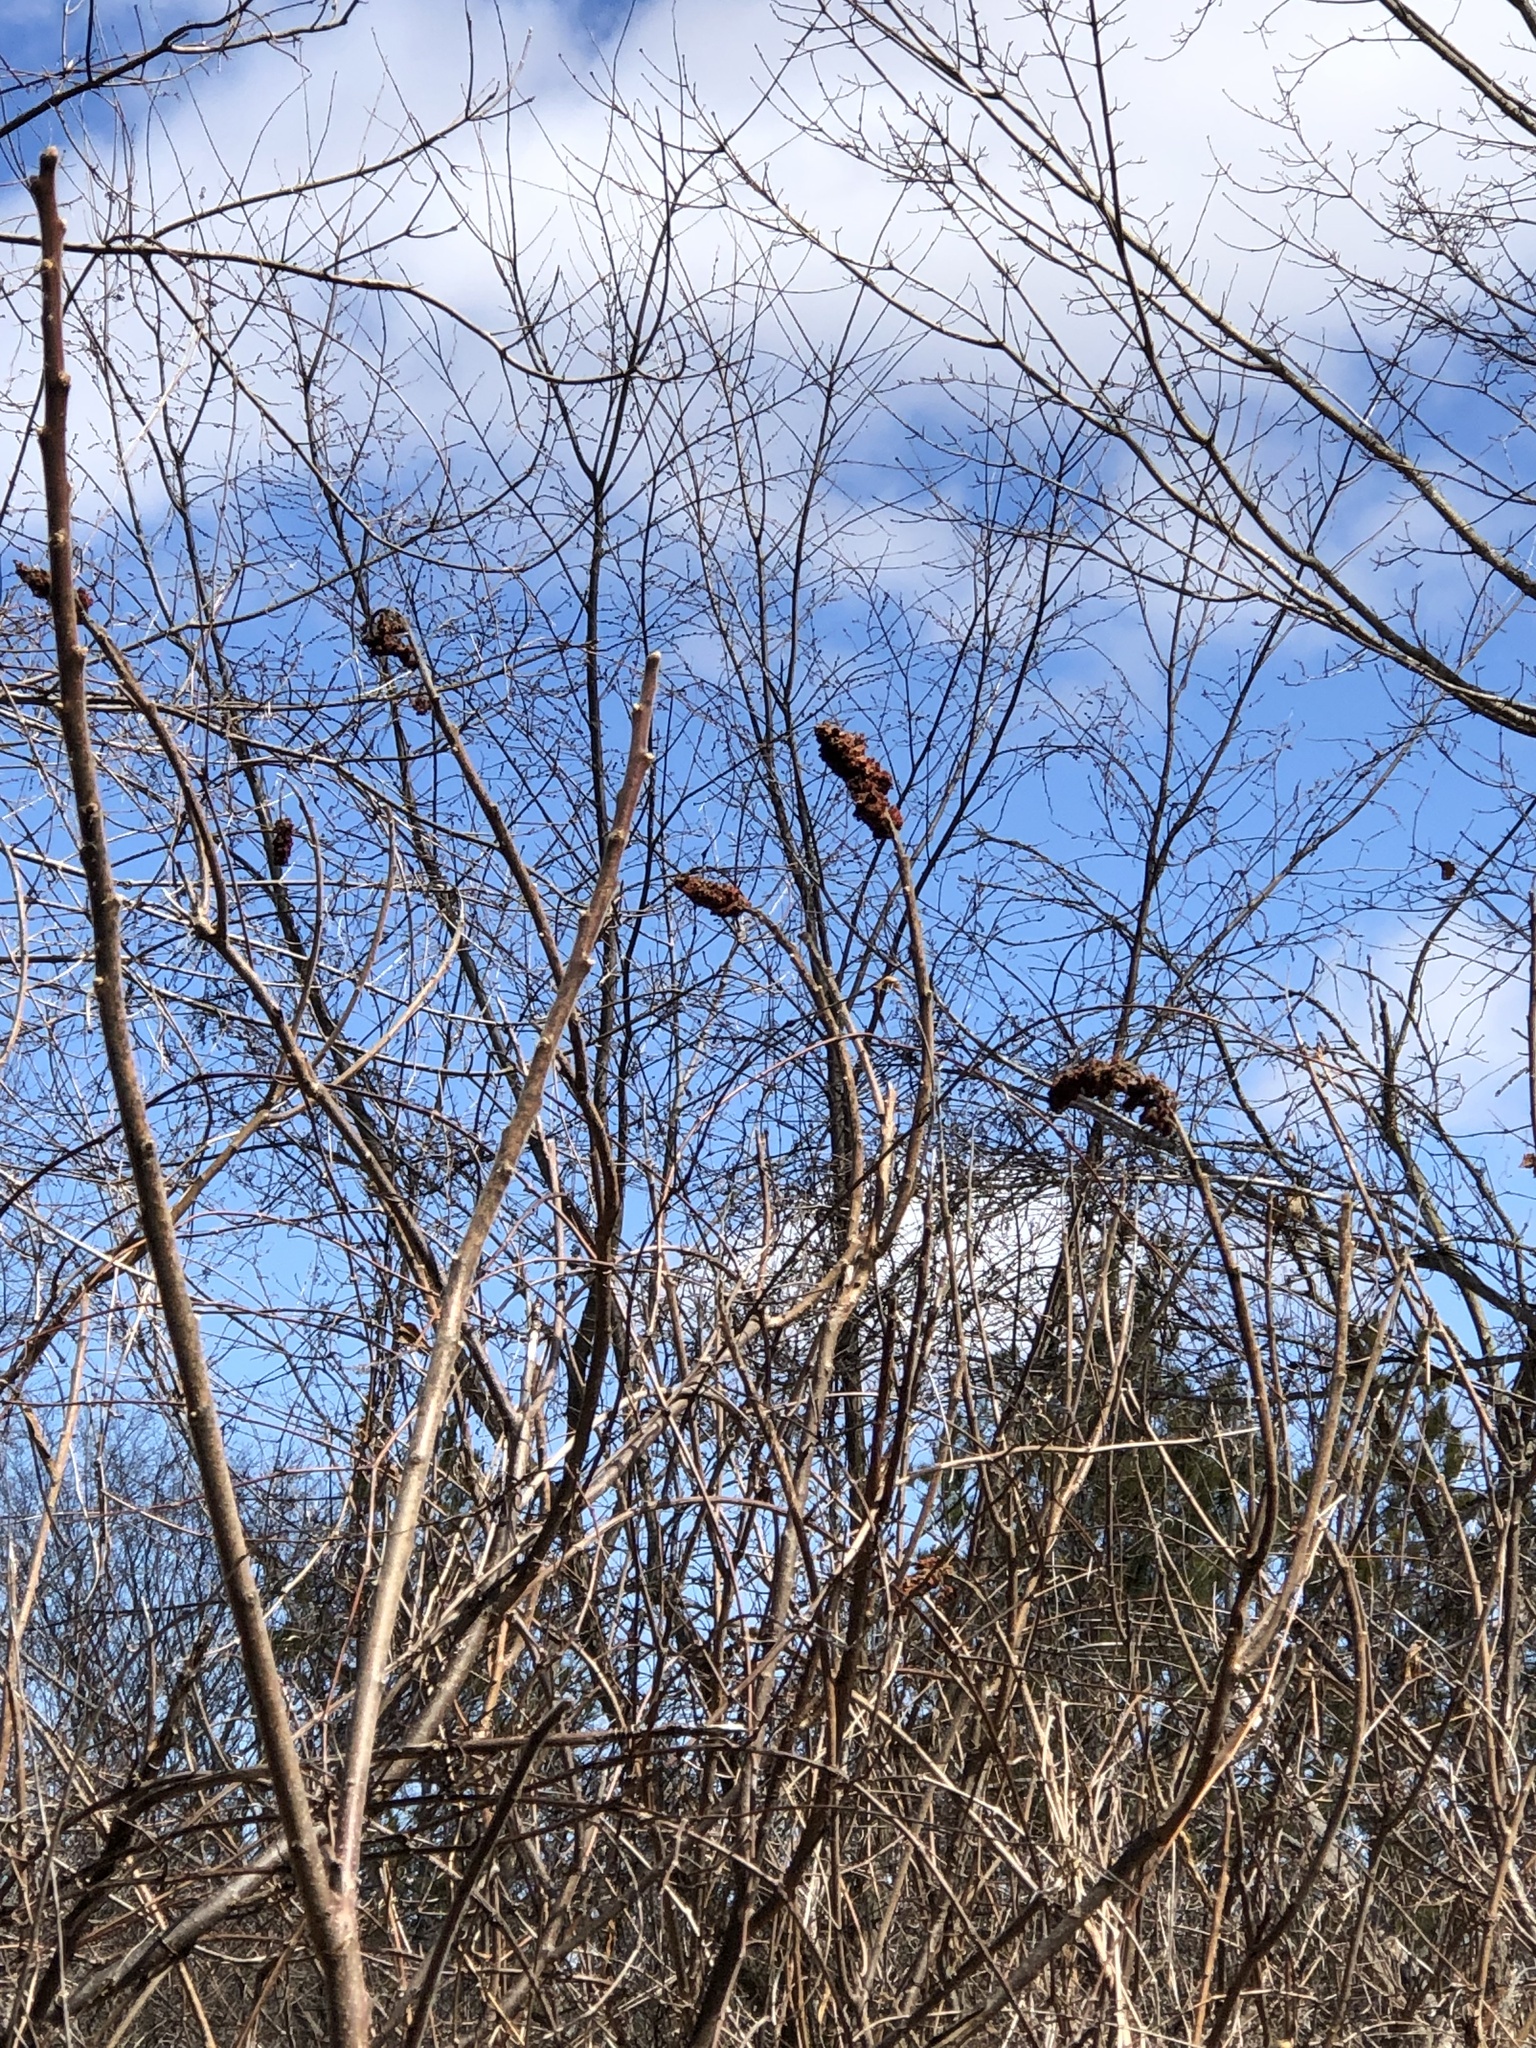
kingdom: Plantae
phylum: Tracheophyta
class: Magnoliopsida
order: Sapindales
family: Anacardiaceae
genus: Rhus
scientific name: Rhus typhina
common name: Staghorn sumac
